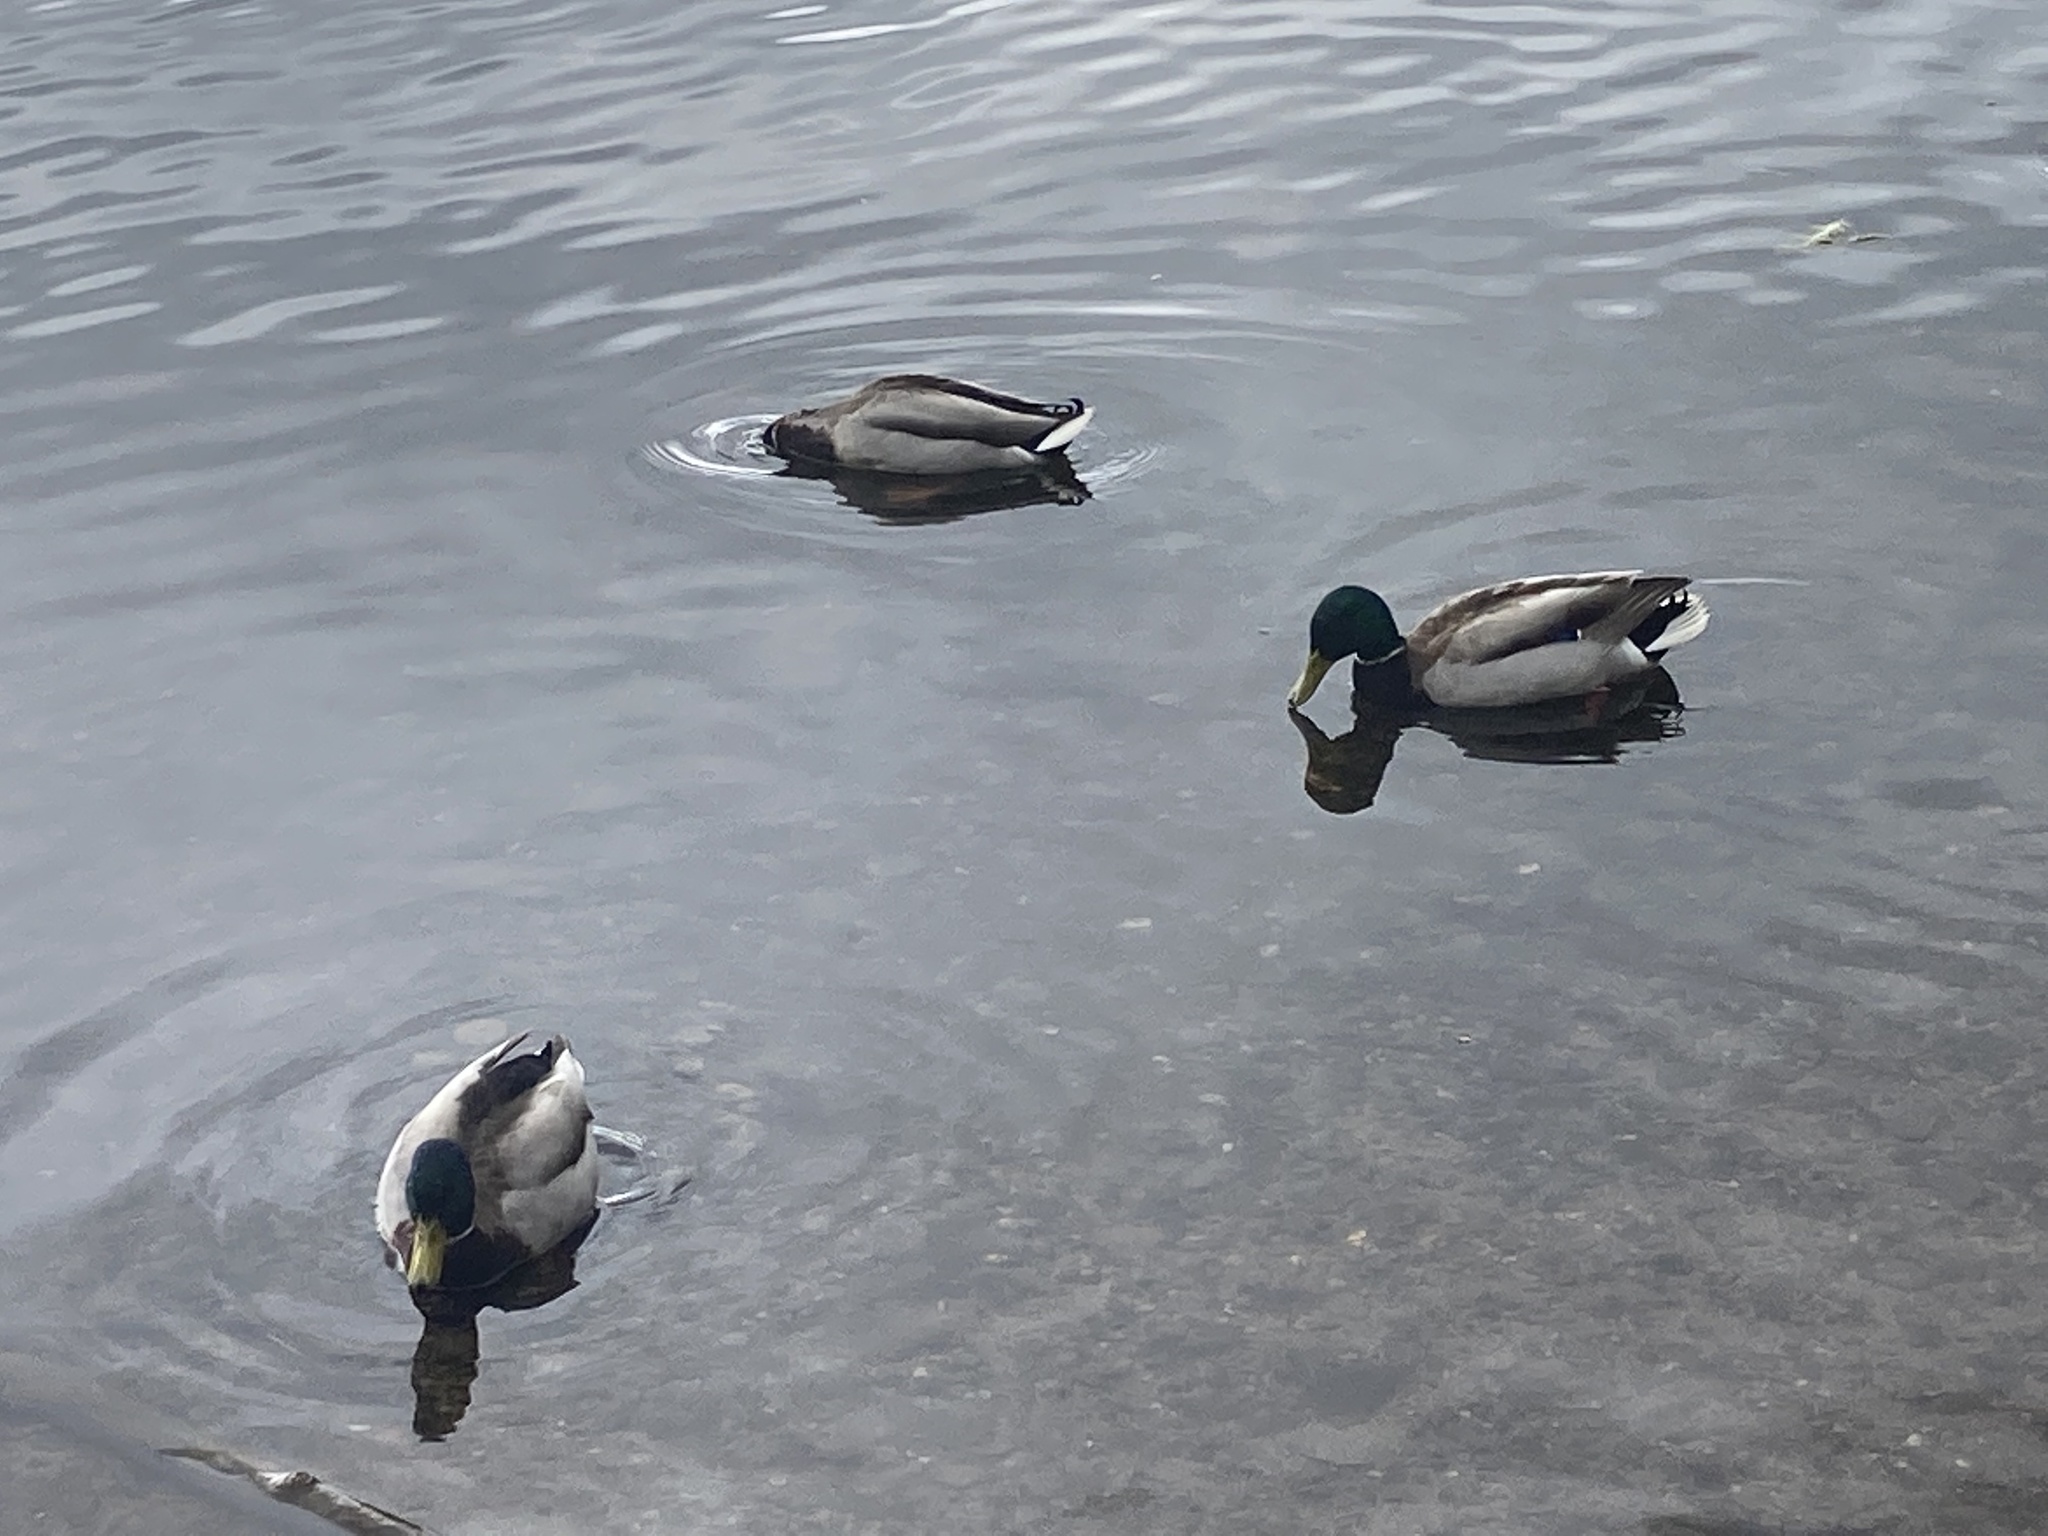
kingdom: Animalia
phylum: Chordata
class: Aves
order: Anseriformes
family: Anatidae
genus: Anas
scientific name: Anas platyrhynchos
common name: Mallard
